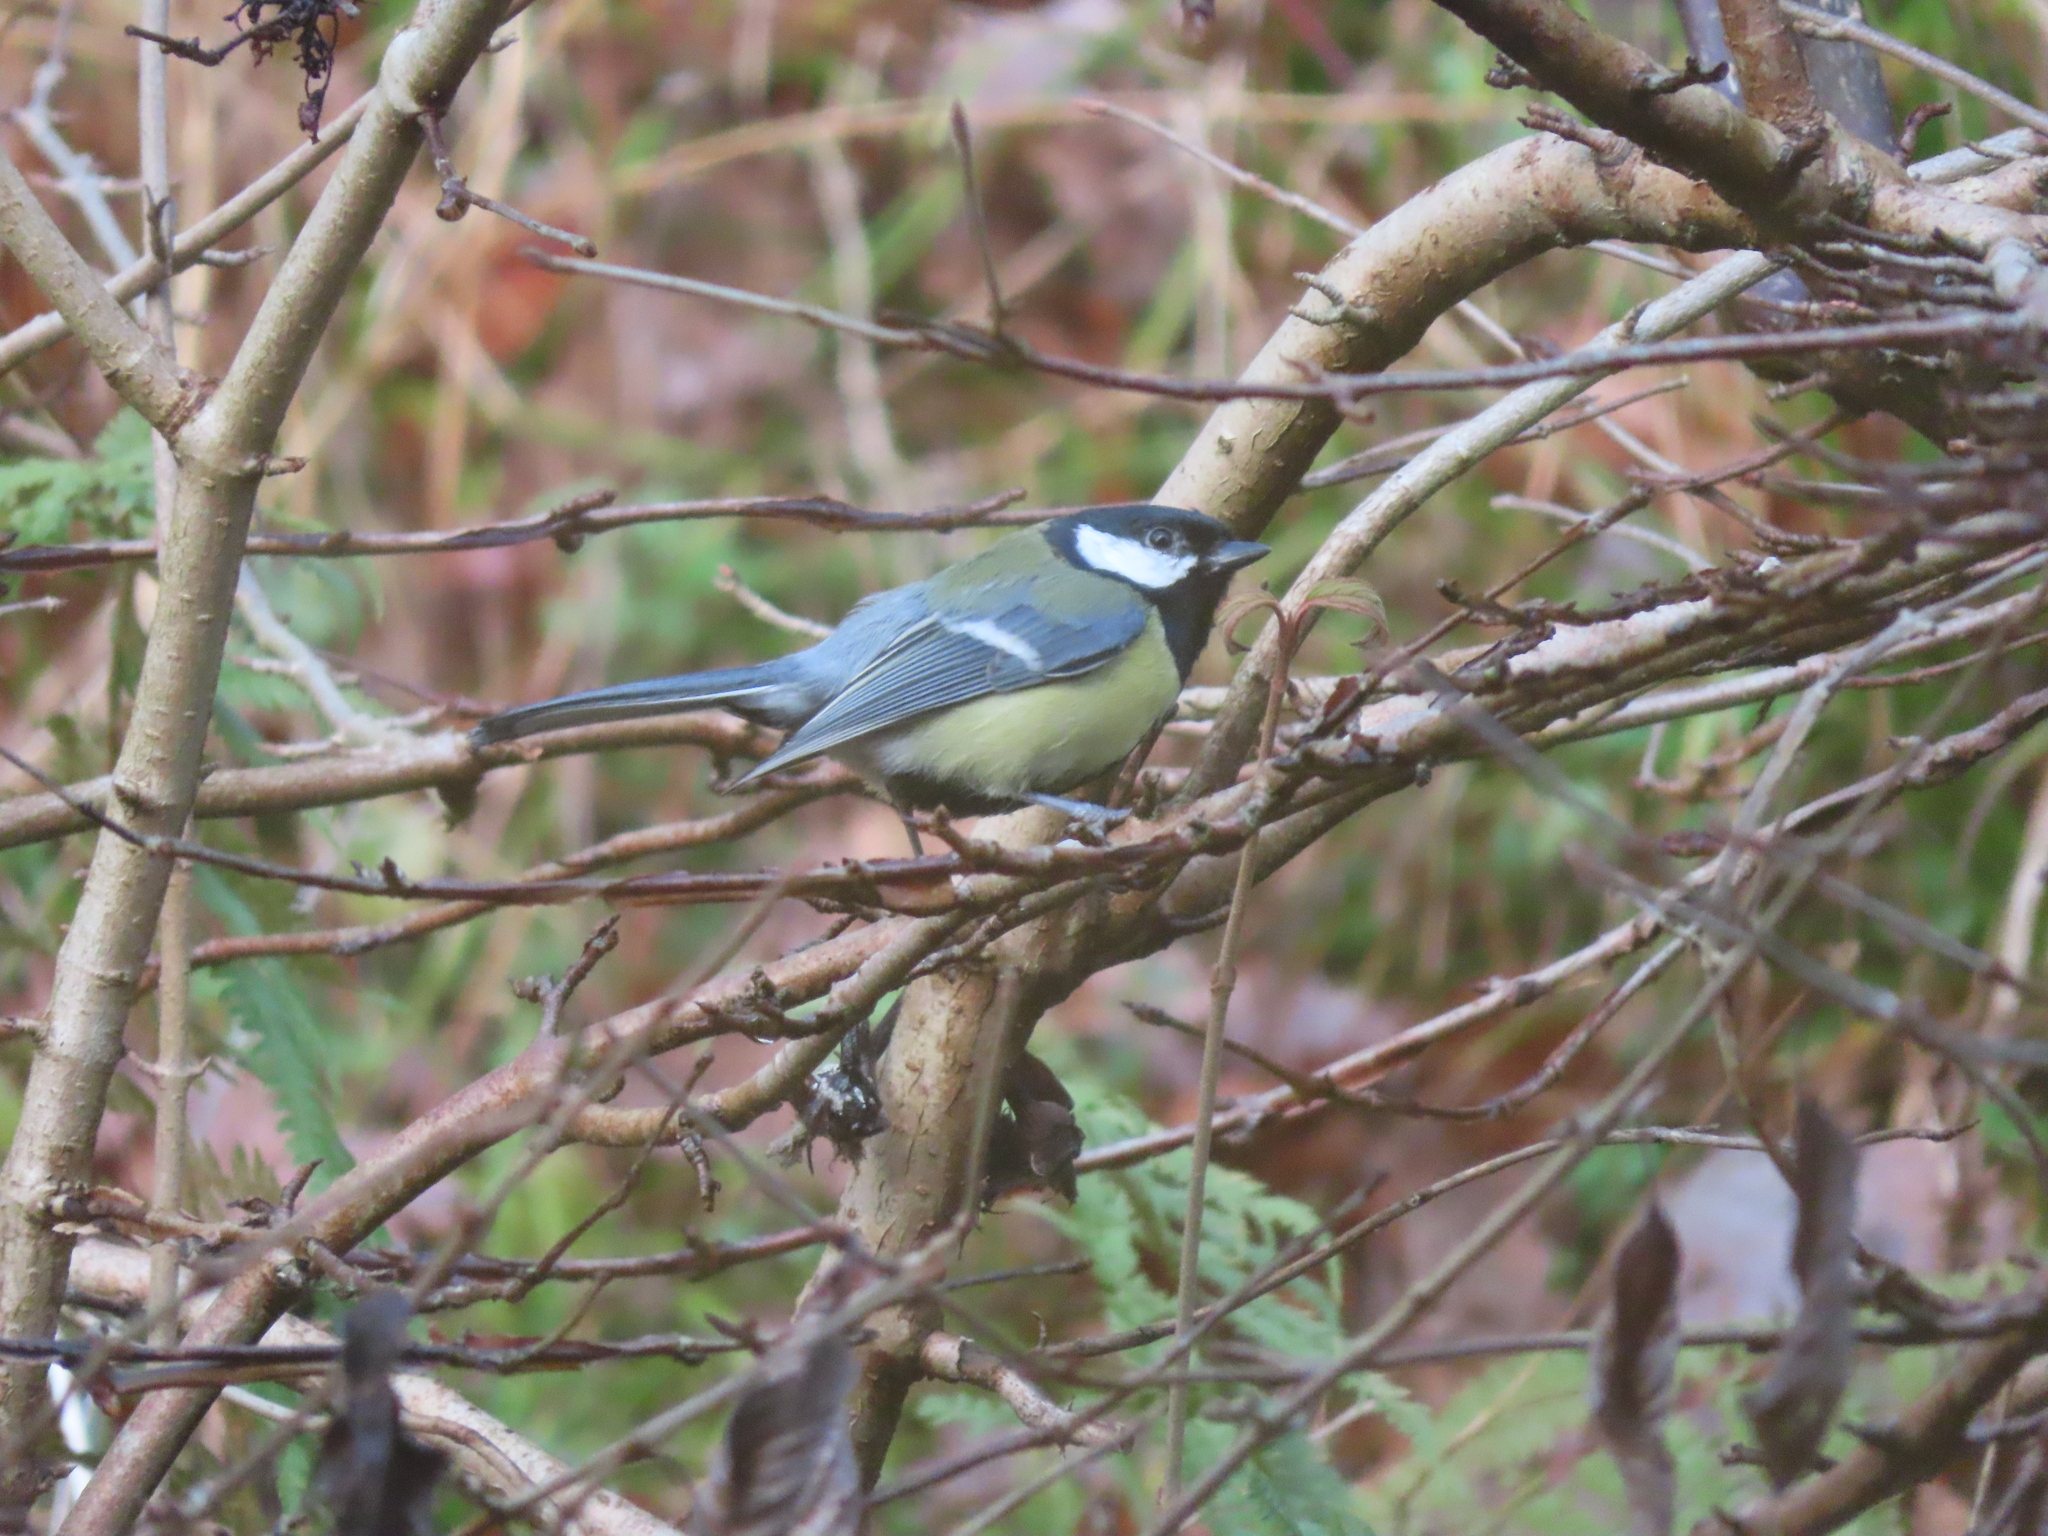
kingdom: Animalia
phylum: Chordata
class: Aves
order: Passeriformes
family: Paridae
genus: Parus
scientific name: Parus major
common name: Great tit
